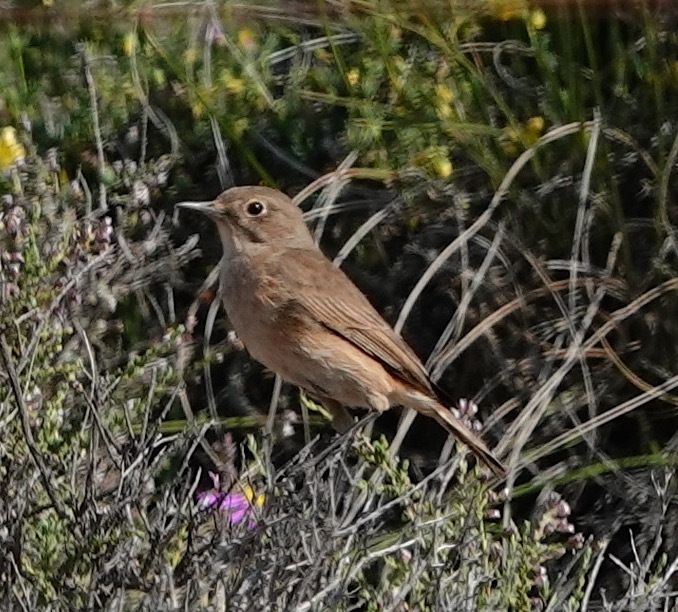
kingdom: Animalia
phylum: Chordata
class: Aves
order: Passeriformes
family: Muscicapidae
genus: Oenanthe
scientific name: Oenanthe familiaris
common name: Familiar chat
